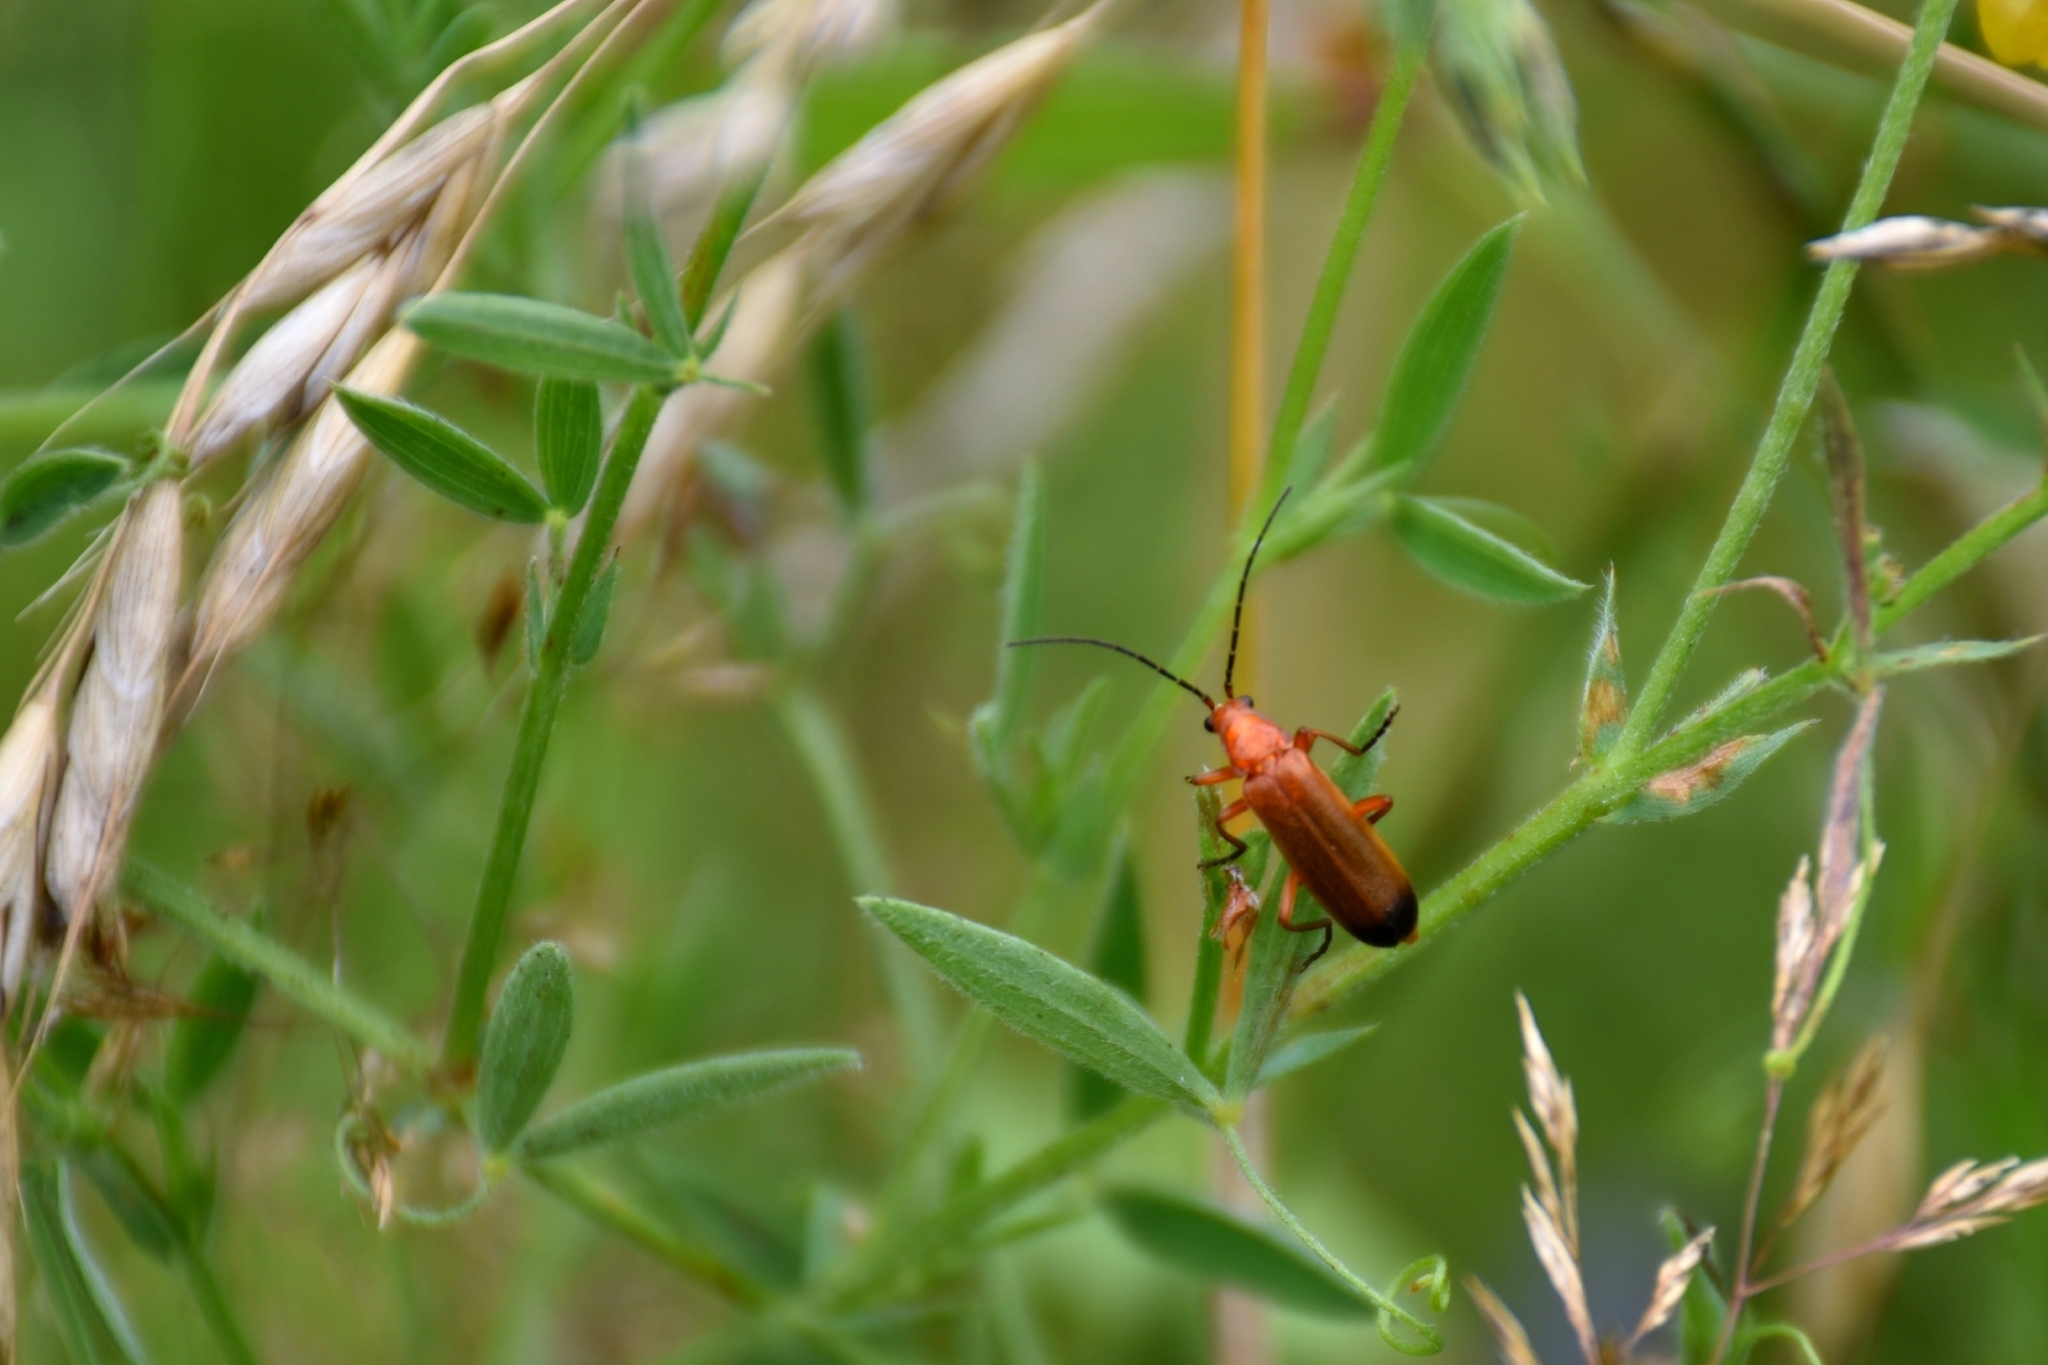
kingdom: Animalia
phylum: Arthropoda
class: Insecta
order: Coleoptera
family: Cantharidae
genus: Rhagonycha
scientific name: Rhagonycha fulva
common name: Common red soldier beetle
